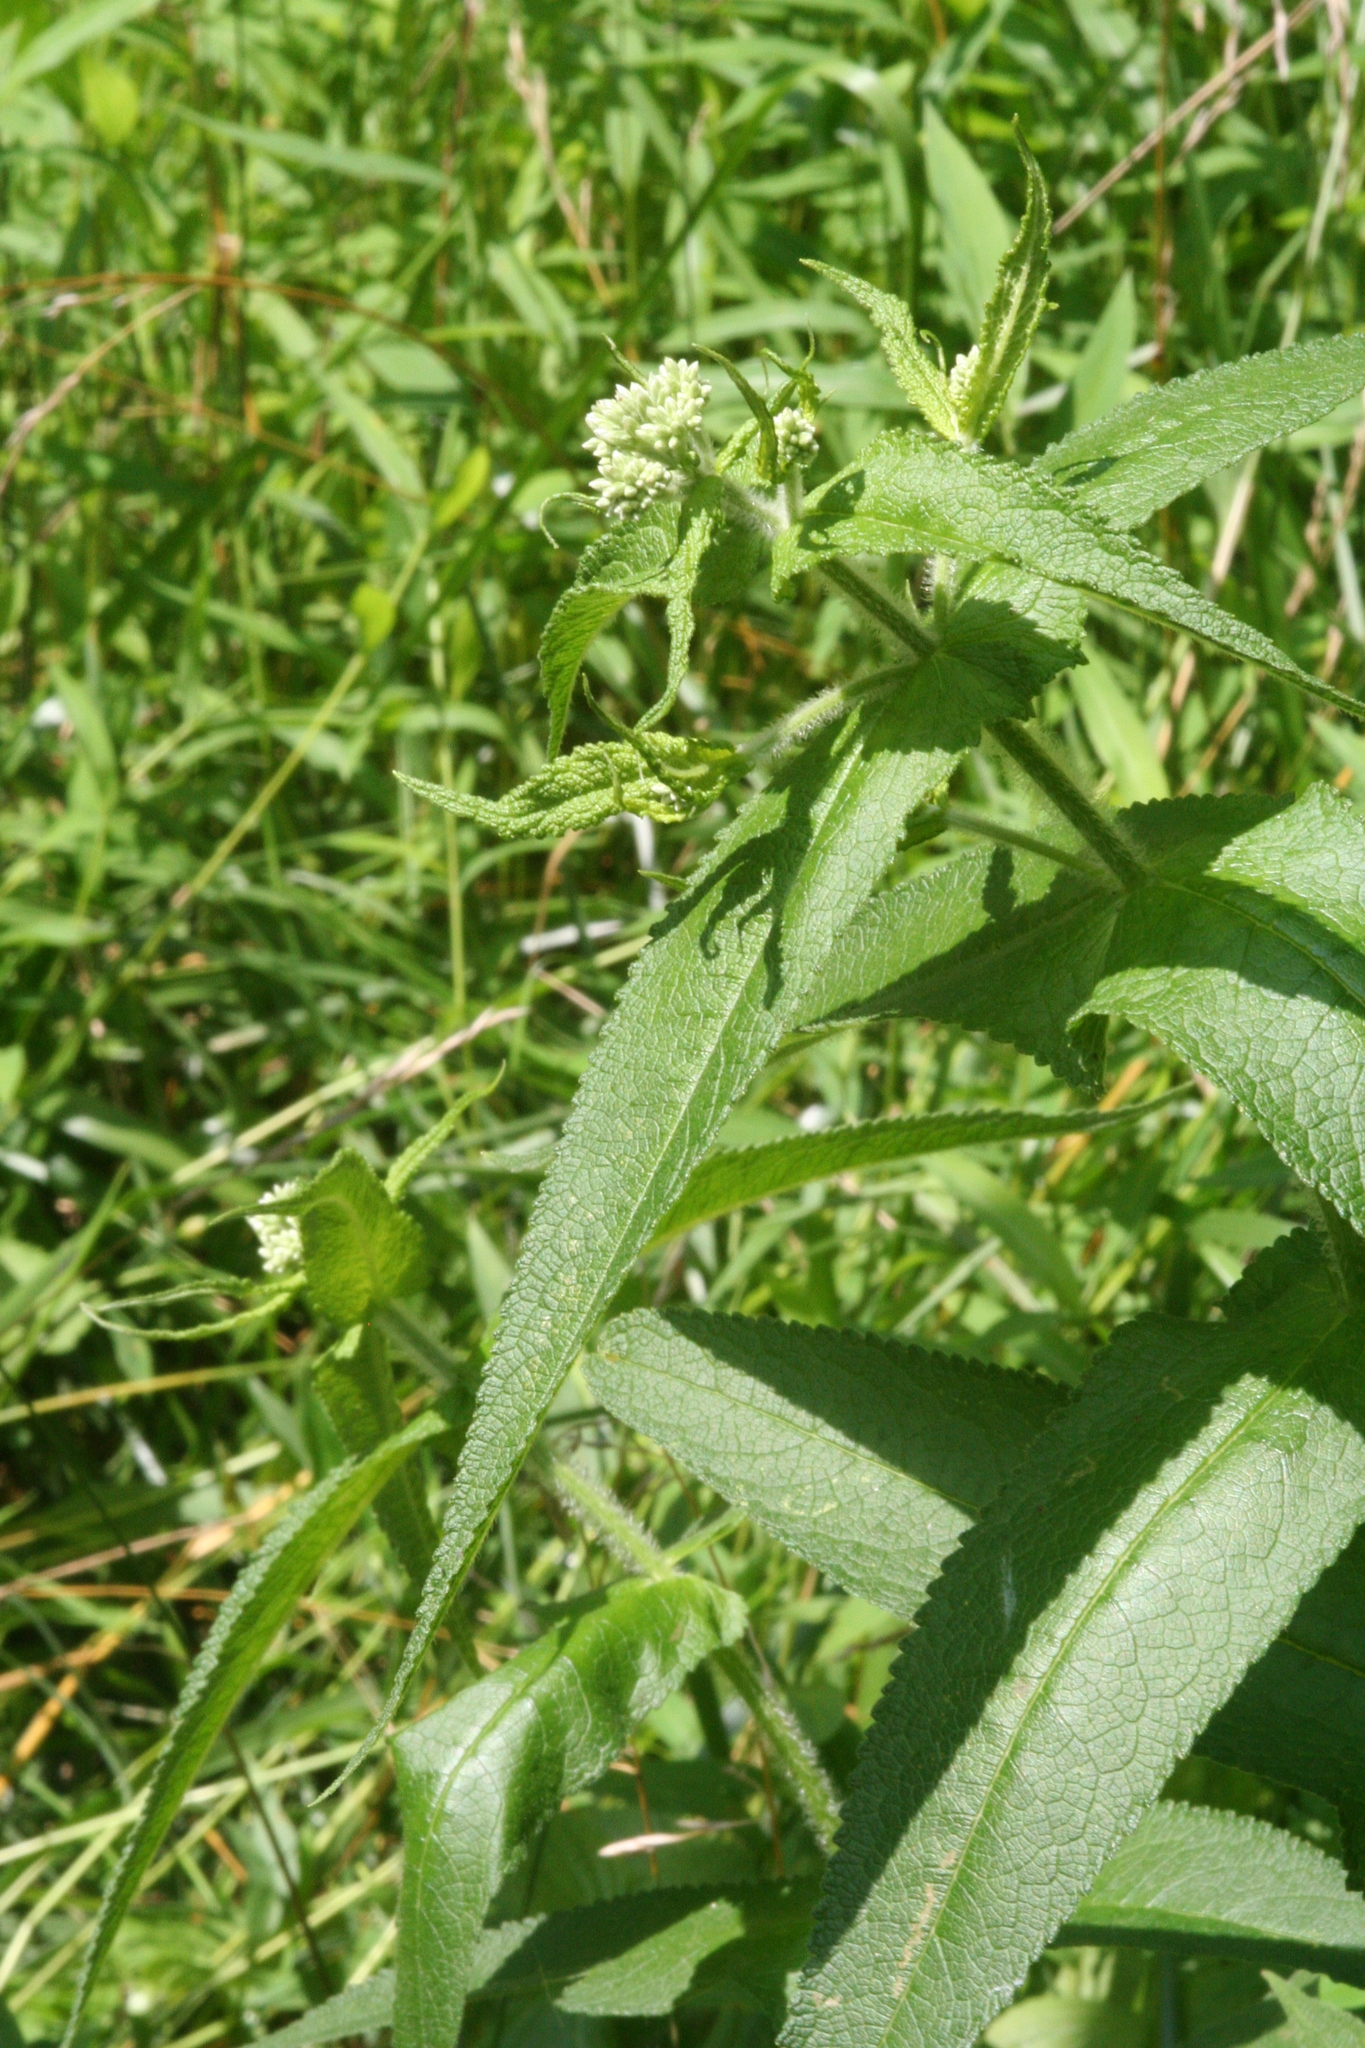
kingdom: Plantae
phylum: Tracheophyta
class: Magnoliopsida
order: Asterales
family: Asteraceae
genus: Eupatorium
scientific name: Eupatorium perfoliatum
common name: Boneset
